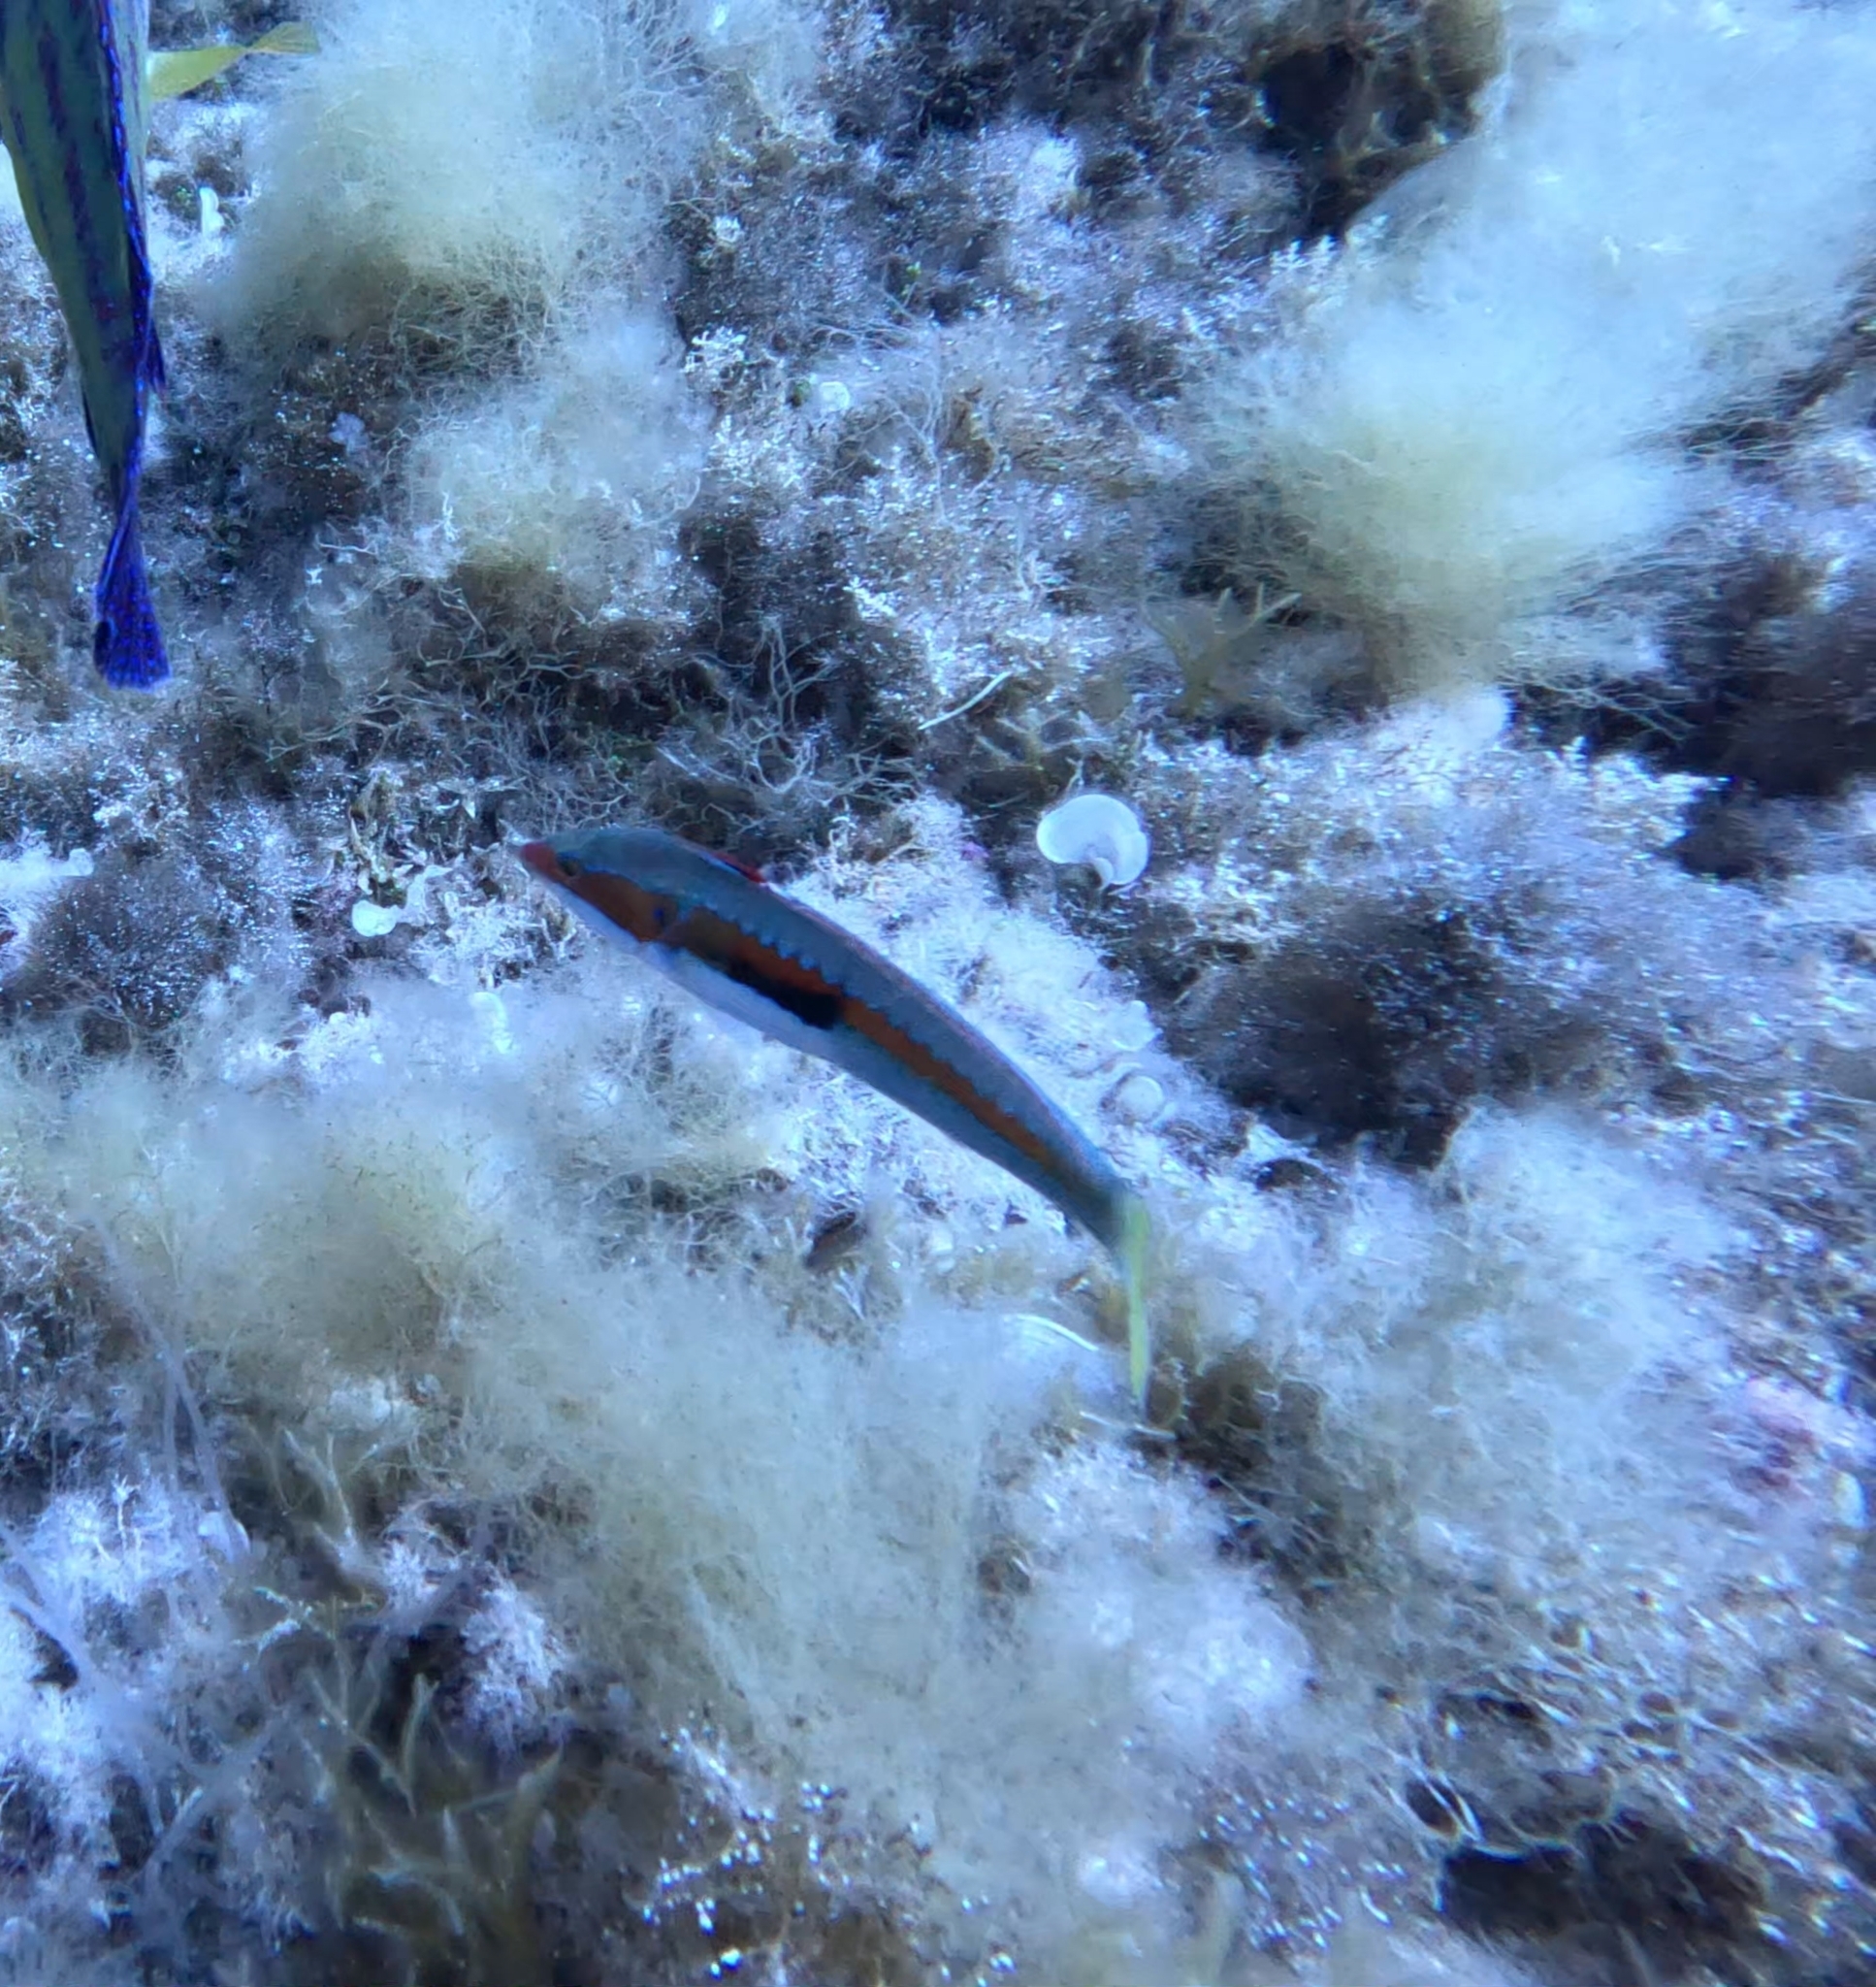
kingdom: Animalia
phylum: Chordata
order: Perciformes
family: Labridae
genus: Coris
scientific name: Coris julis
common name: Rainbow wrasse
